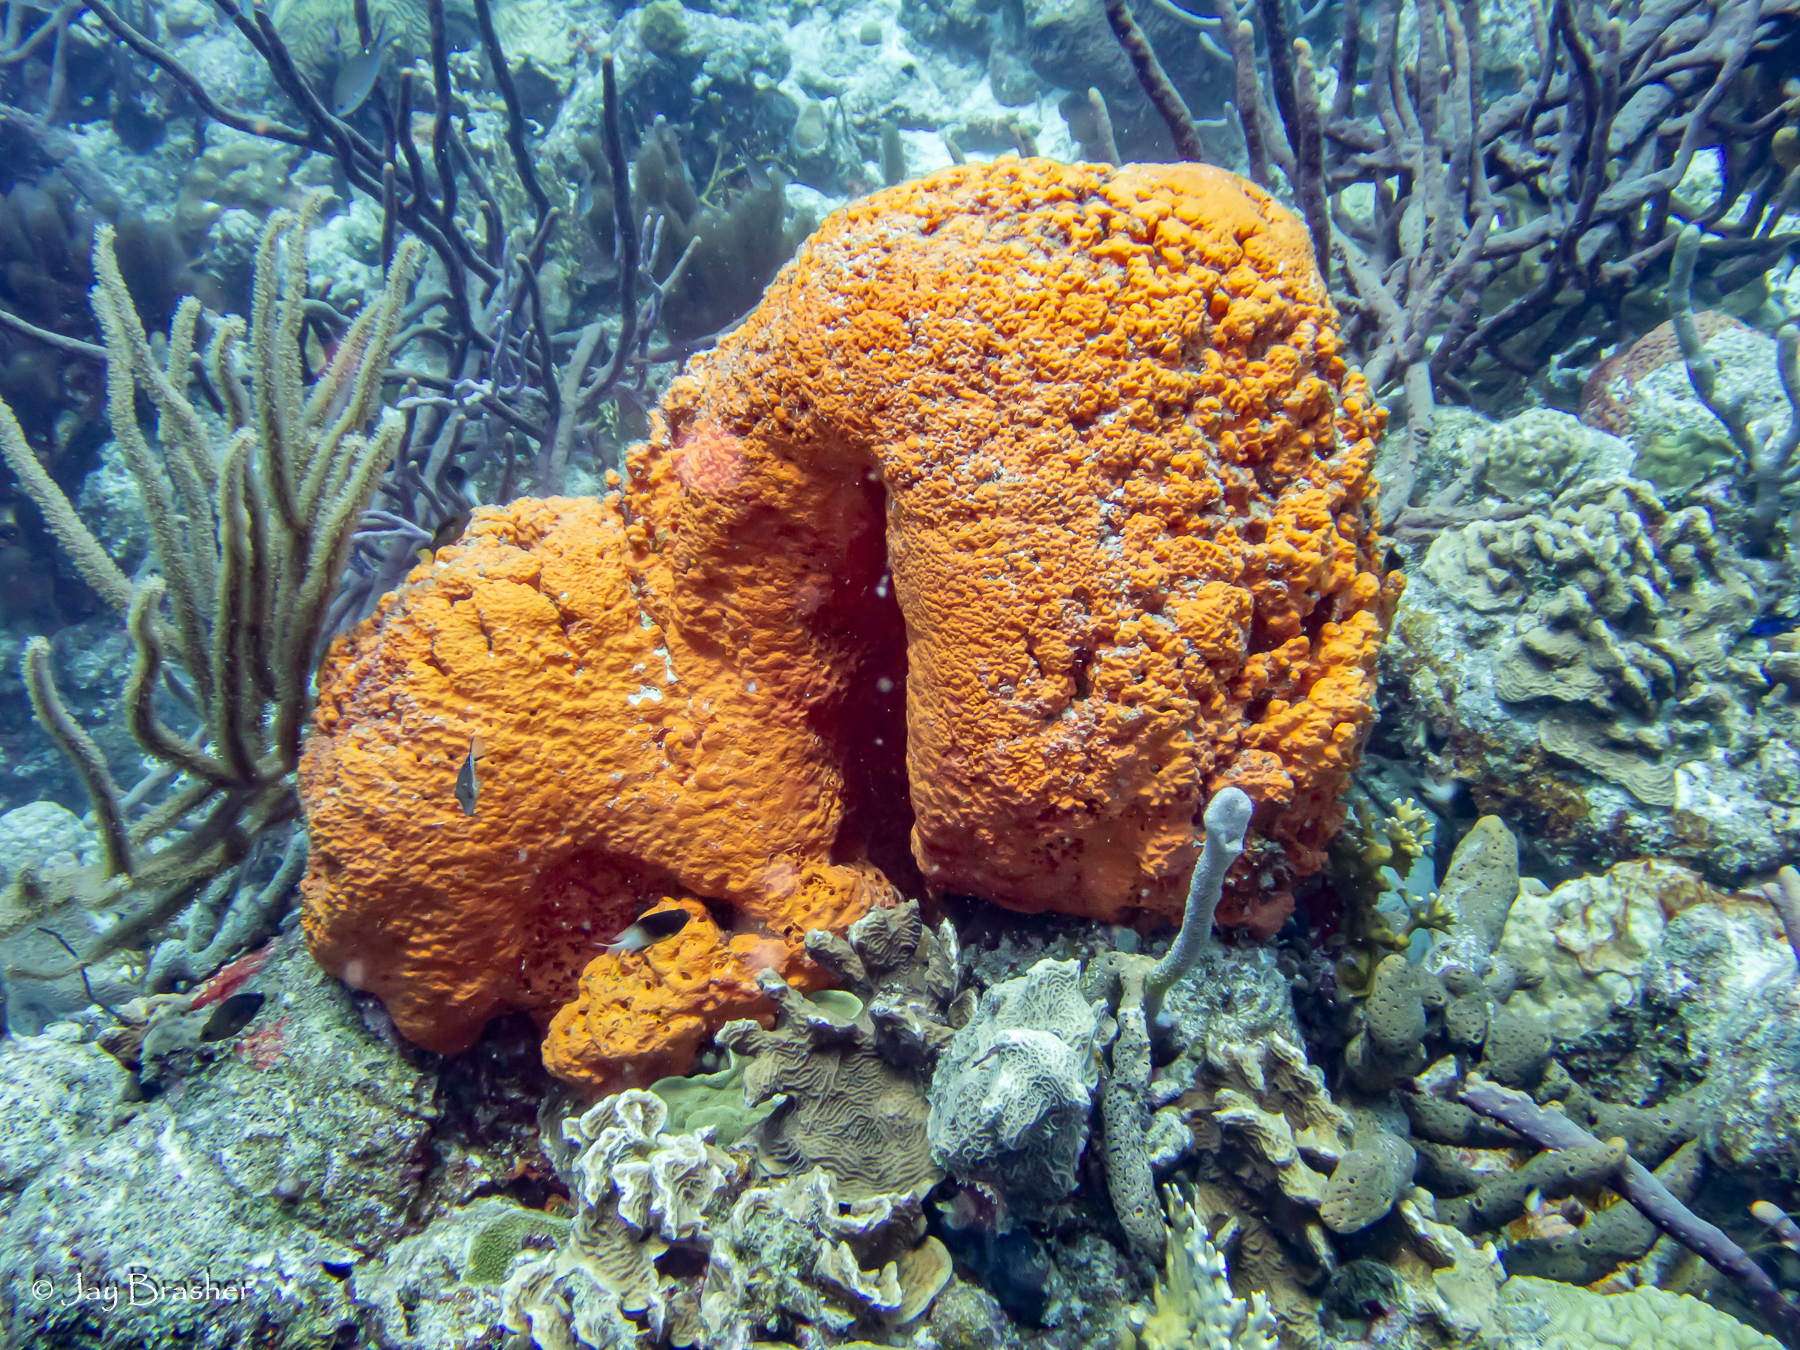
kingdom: Animalia
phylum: Chordata
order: Tetraodontiformes
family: Tetraodontidae
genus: Canthigaster
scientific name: Canthigaster rostrata
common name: Caribbean sharpnose-puffer
